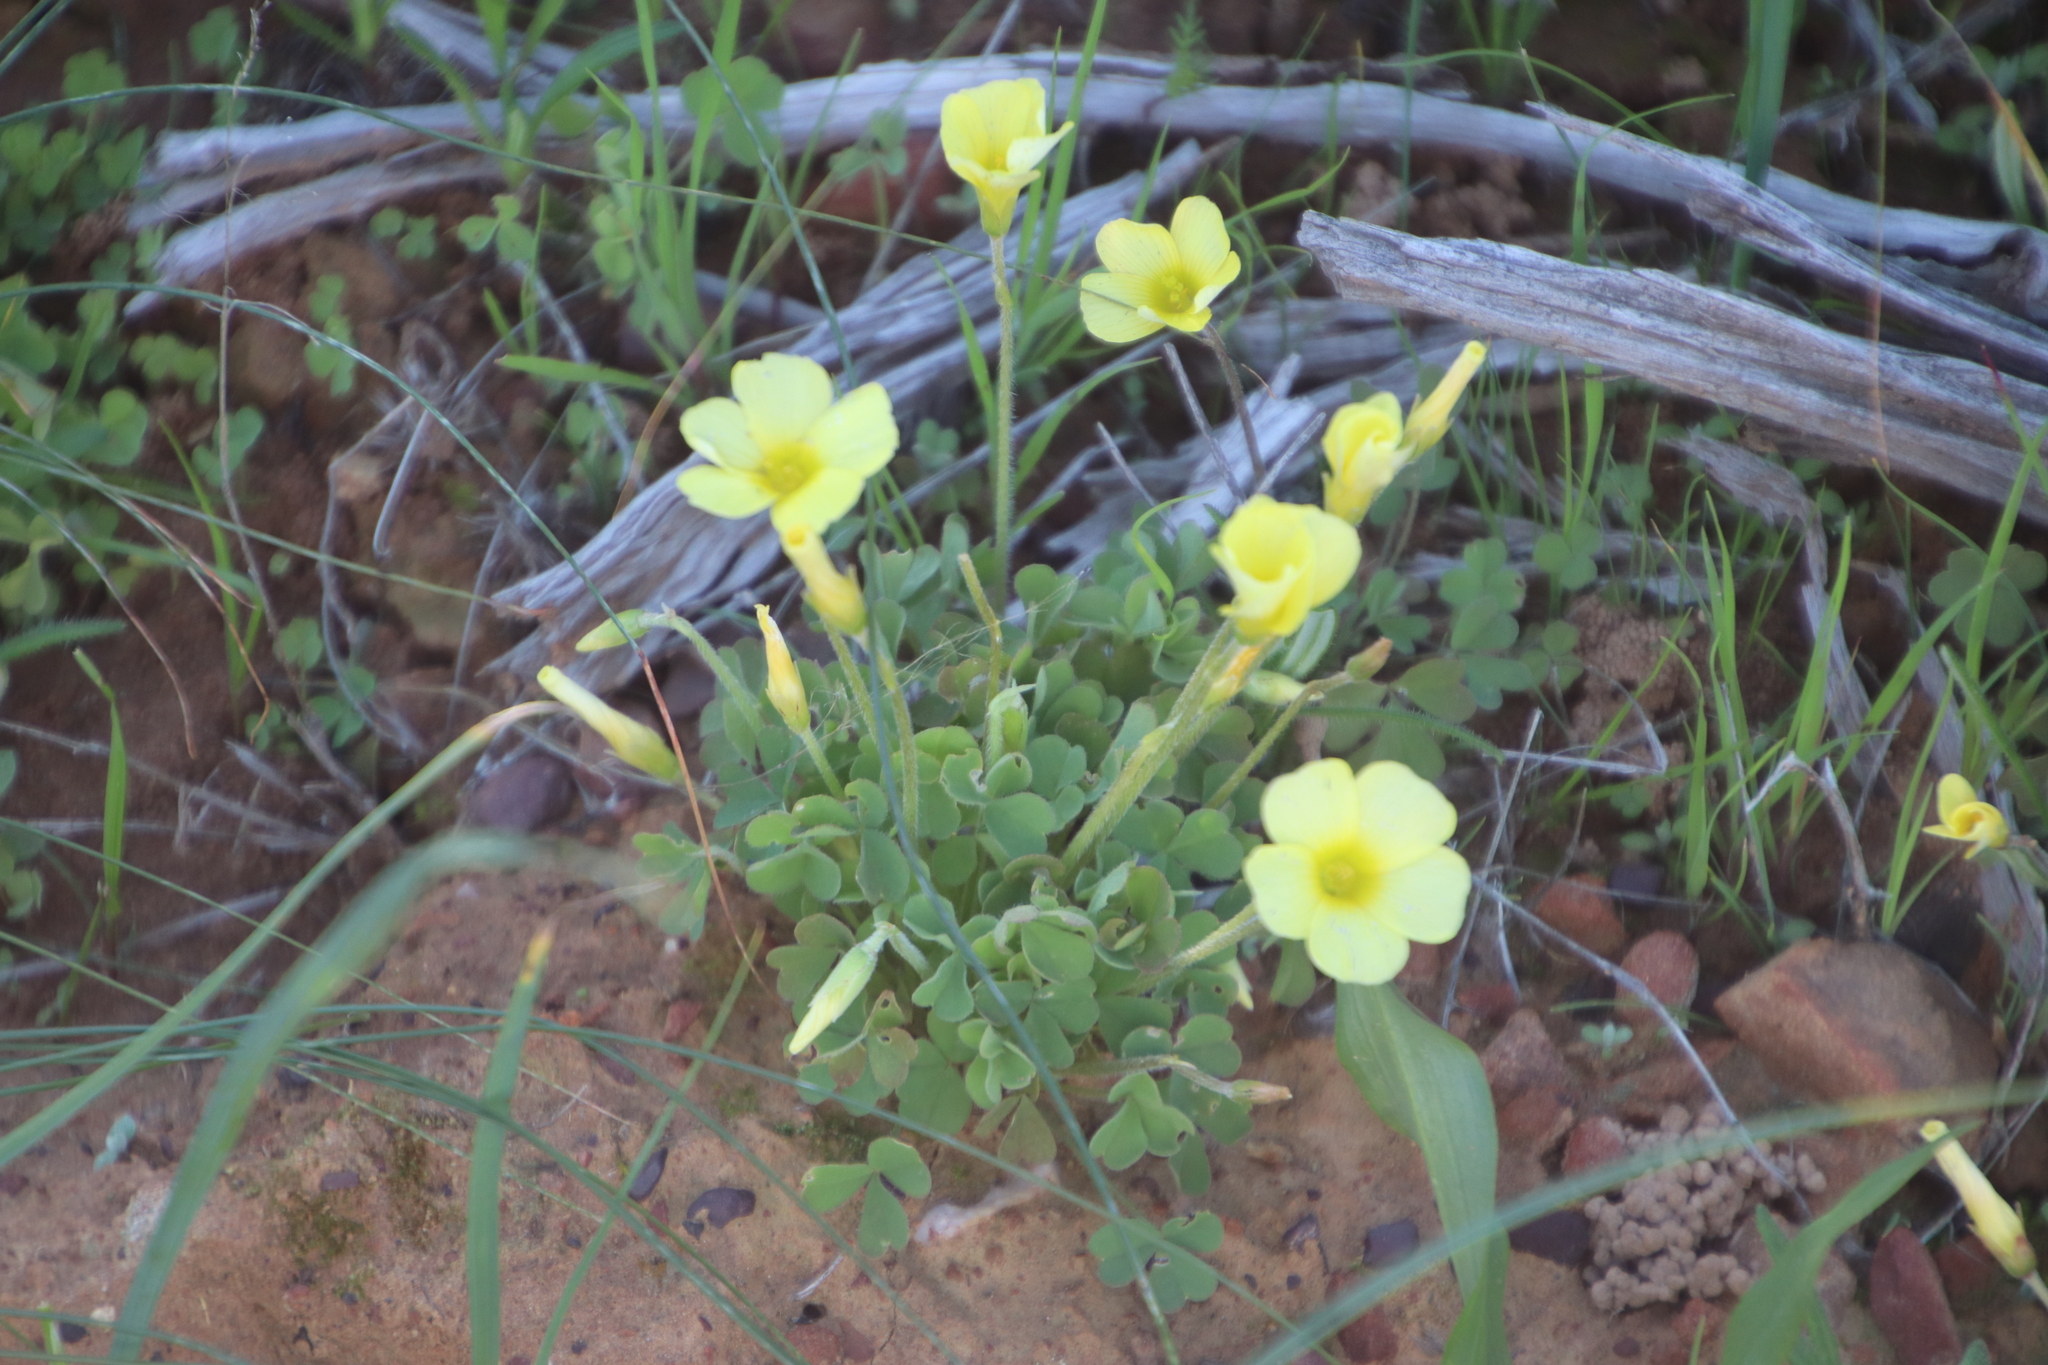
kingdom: Plantae
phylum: Tracheophyta
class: Magnoliopsida
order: Oxalidales
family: Oxalidaceae
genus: Oxalis
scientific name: Oxalis obtusa
